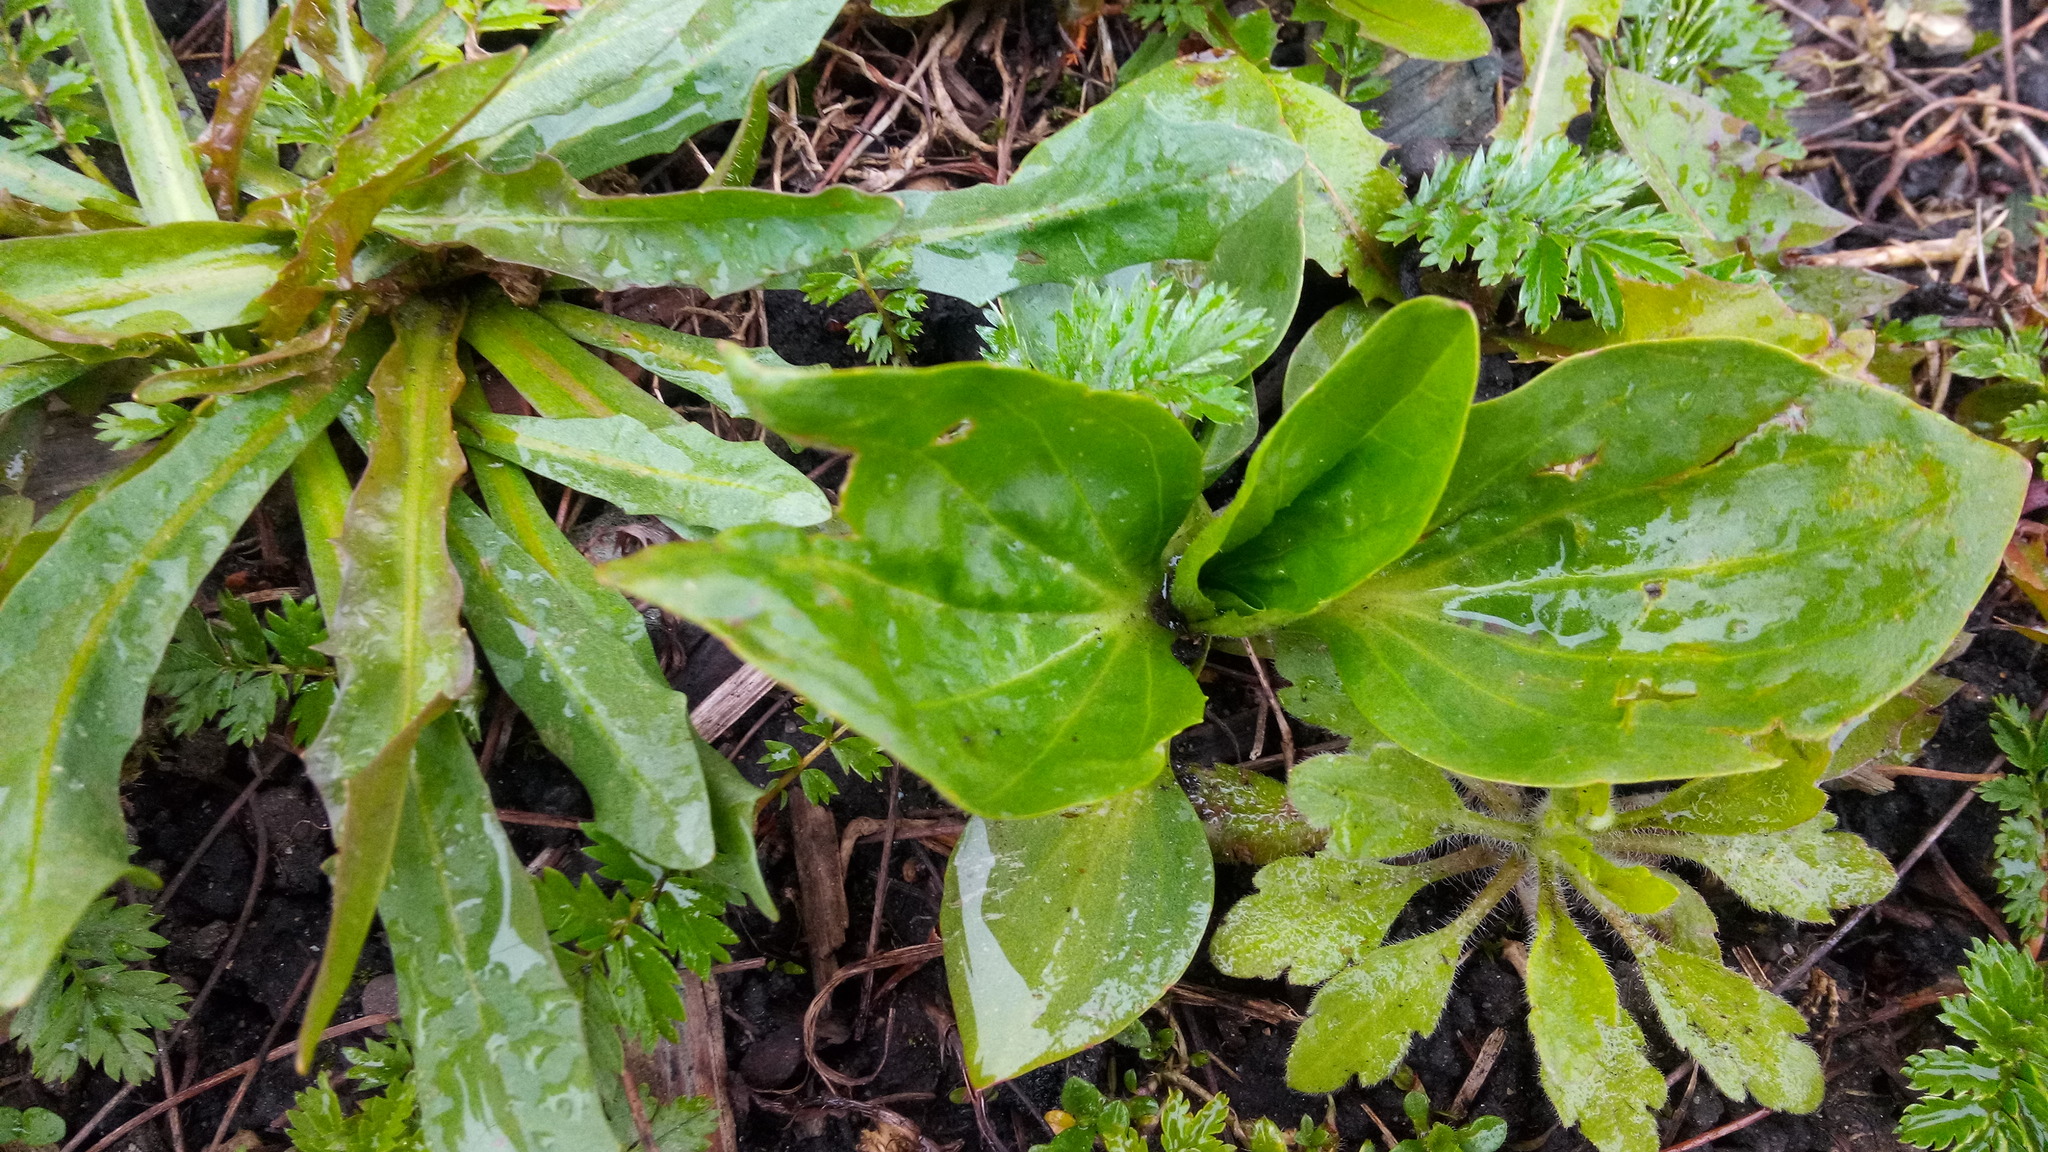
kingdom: Plantae
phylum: Tracheophyta
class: Magnoliopsida
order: Lamiales
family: Plantaginaceae
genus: Plantago
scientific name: Plantago major
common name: Common plantain
